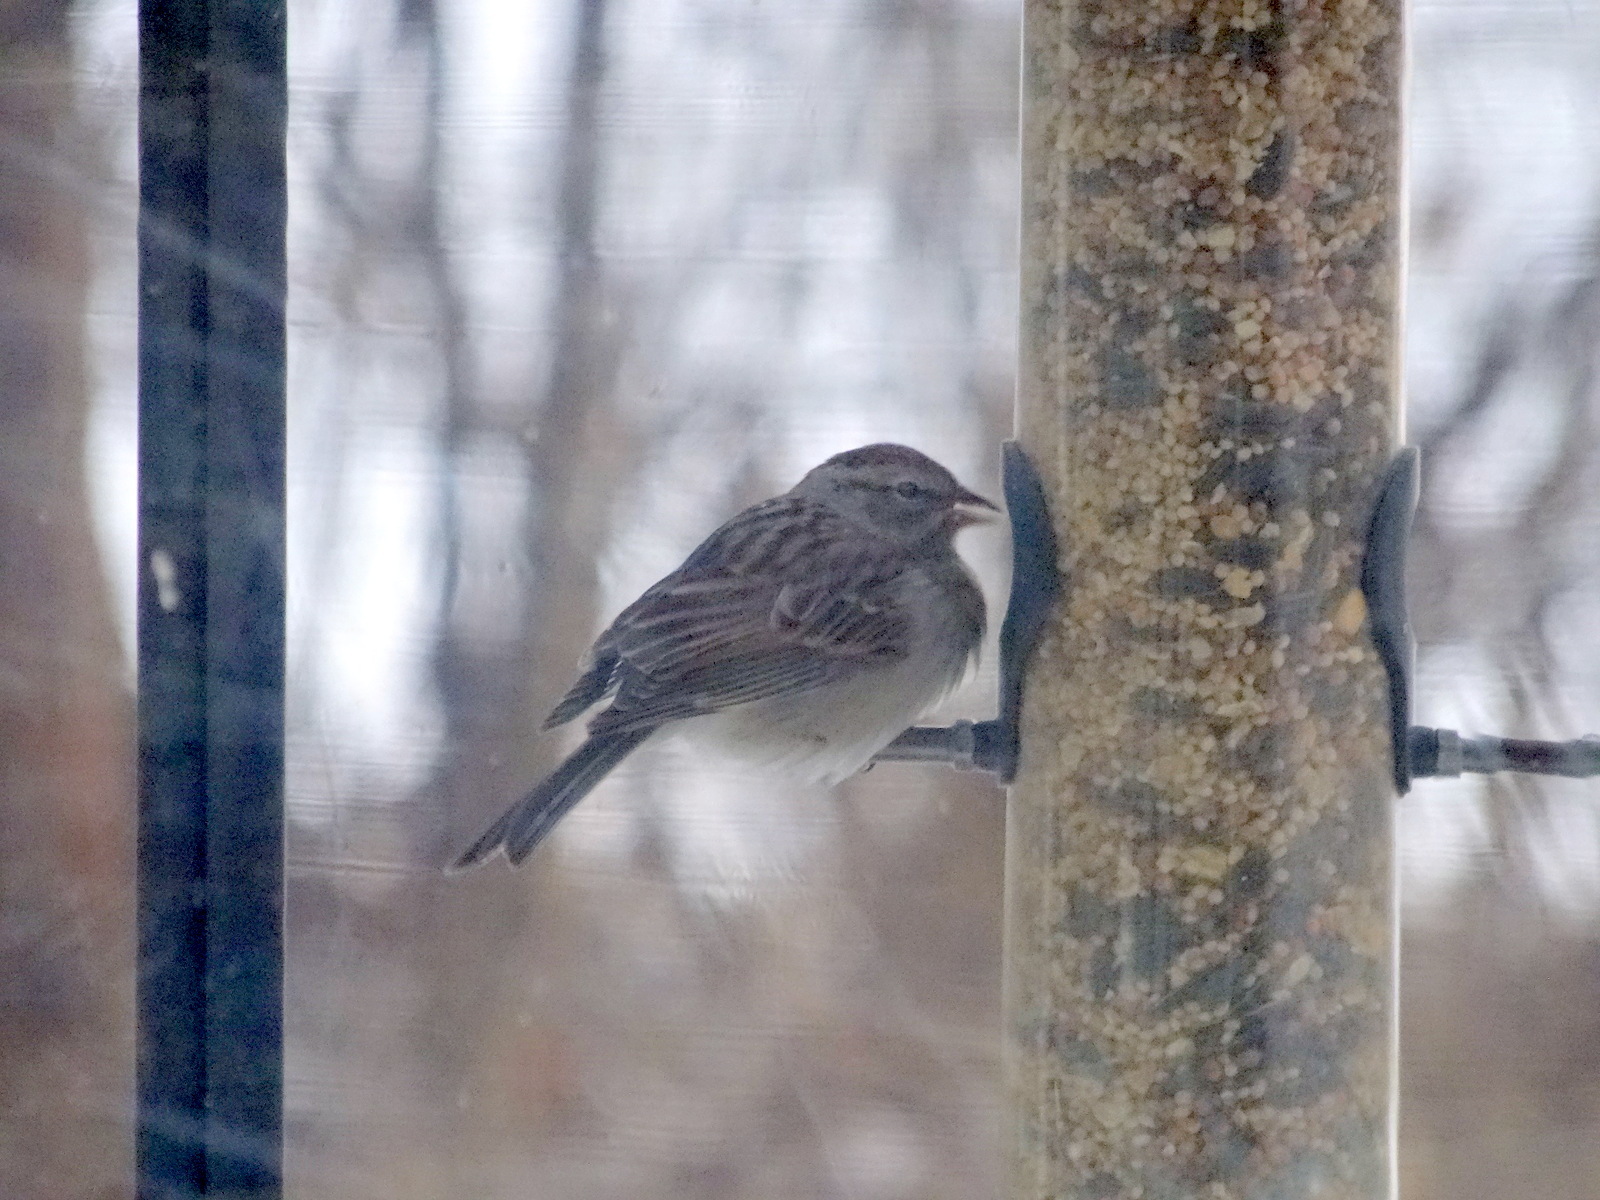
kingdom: Animalia
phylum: Chordata
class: Aves
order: Passeriformes
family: Passerellidae
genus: Spizella
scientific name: Spizella passerina
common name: Chipping sparrow
